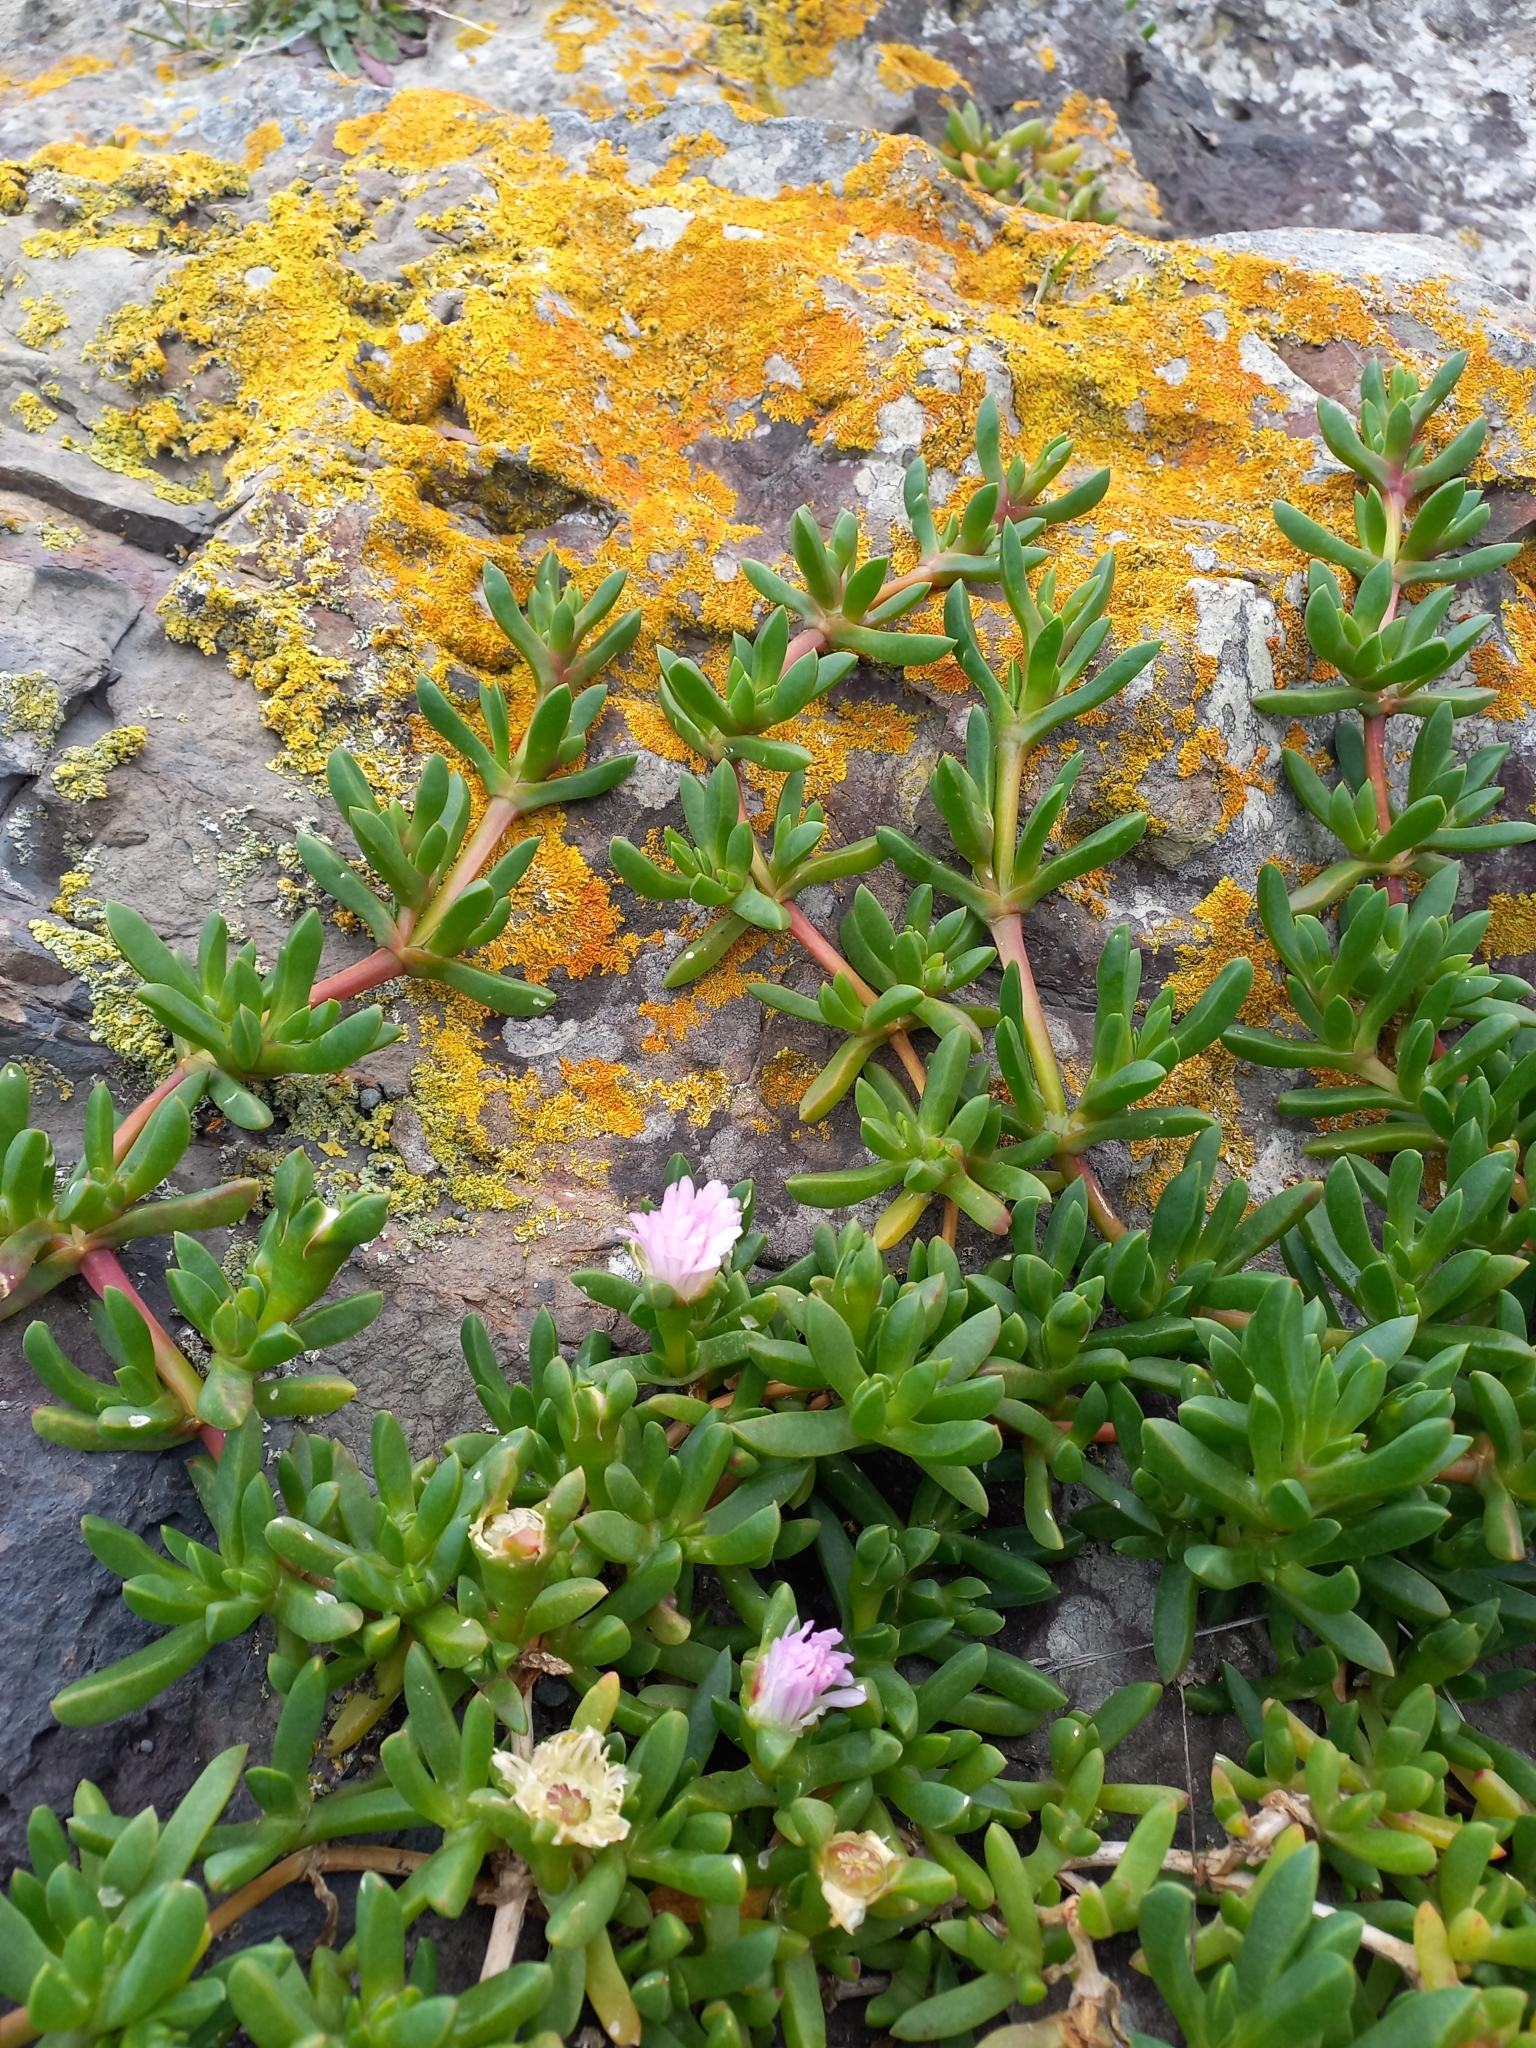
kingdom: Plantae
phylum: Tracheophyta
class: Magnoliopsida
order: Caryophyllales
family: Aizoaceae
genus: Disphyma
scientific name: Disphyma australe
